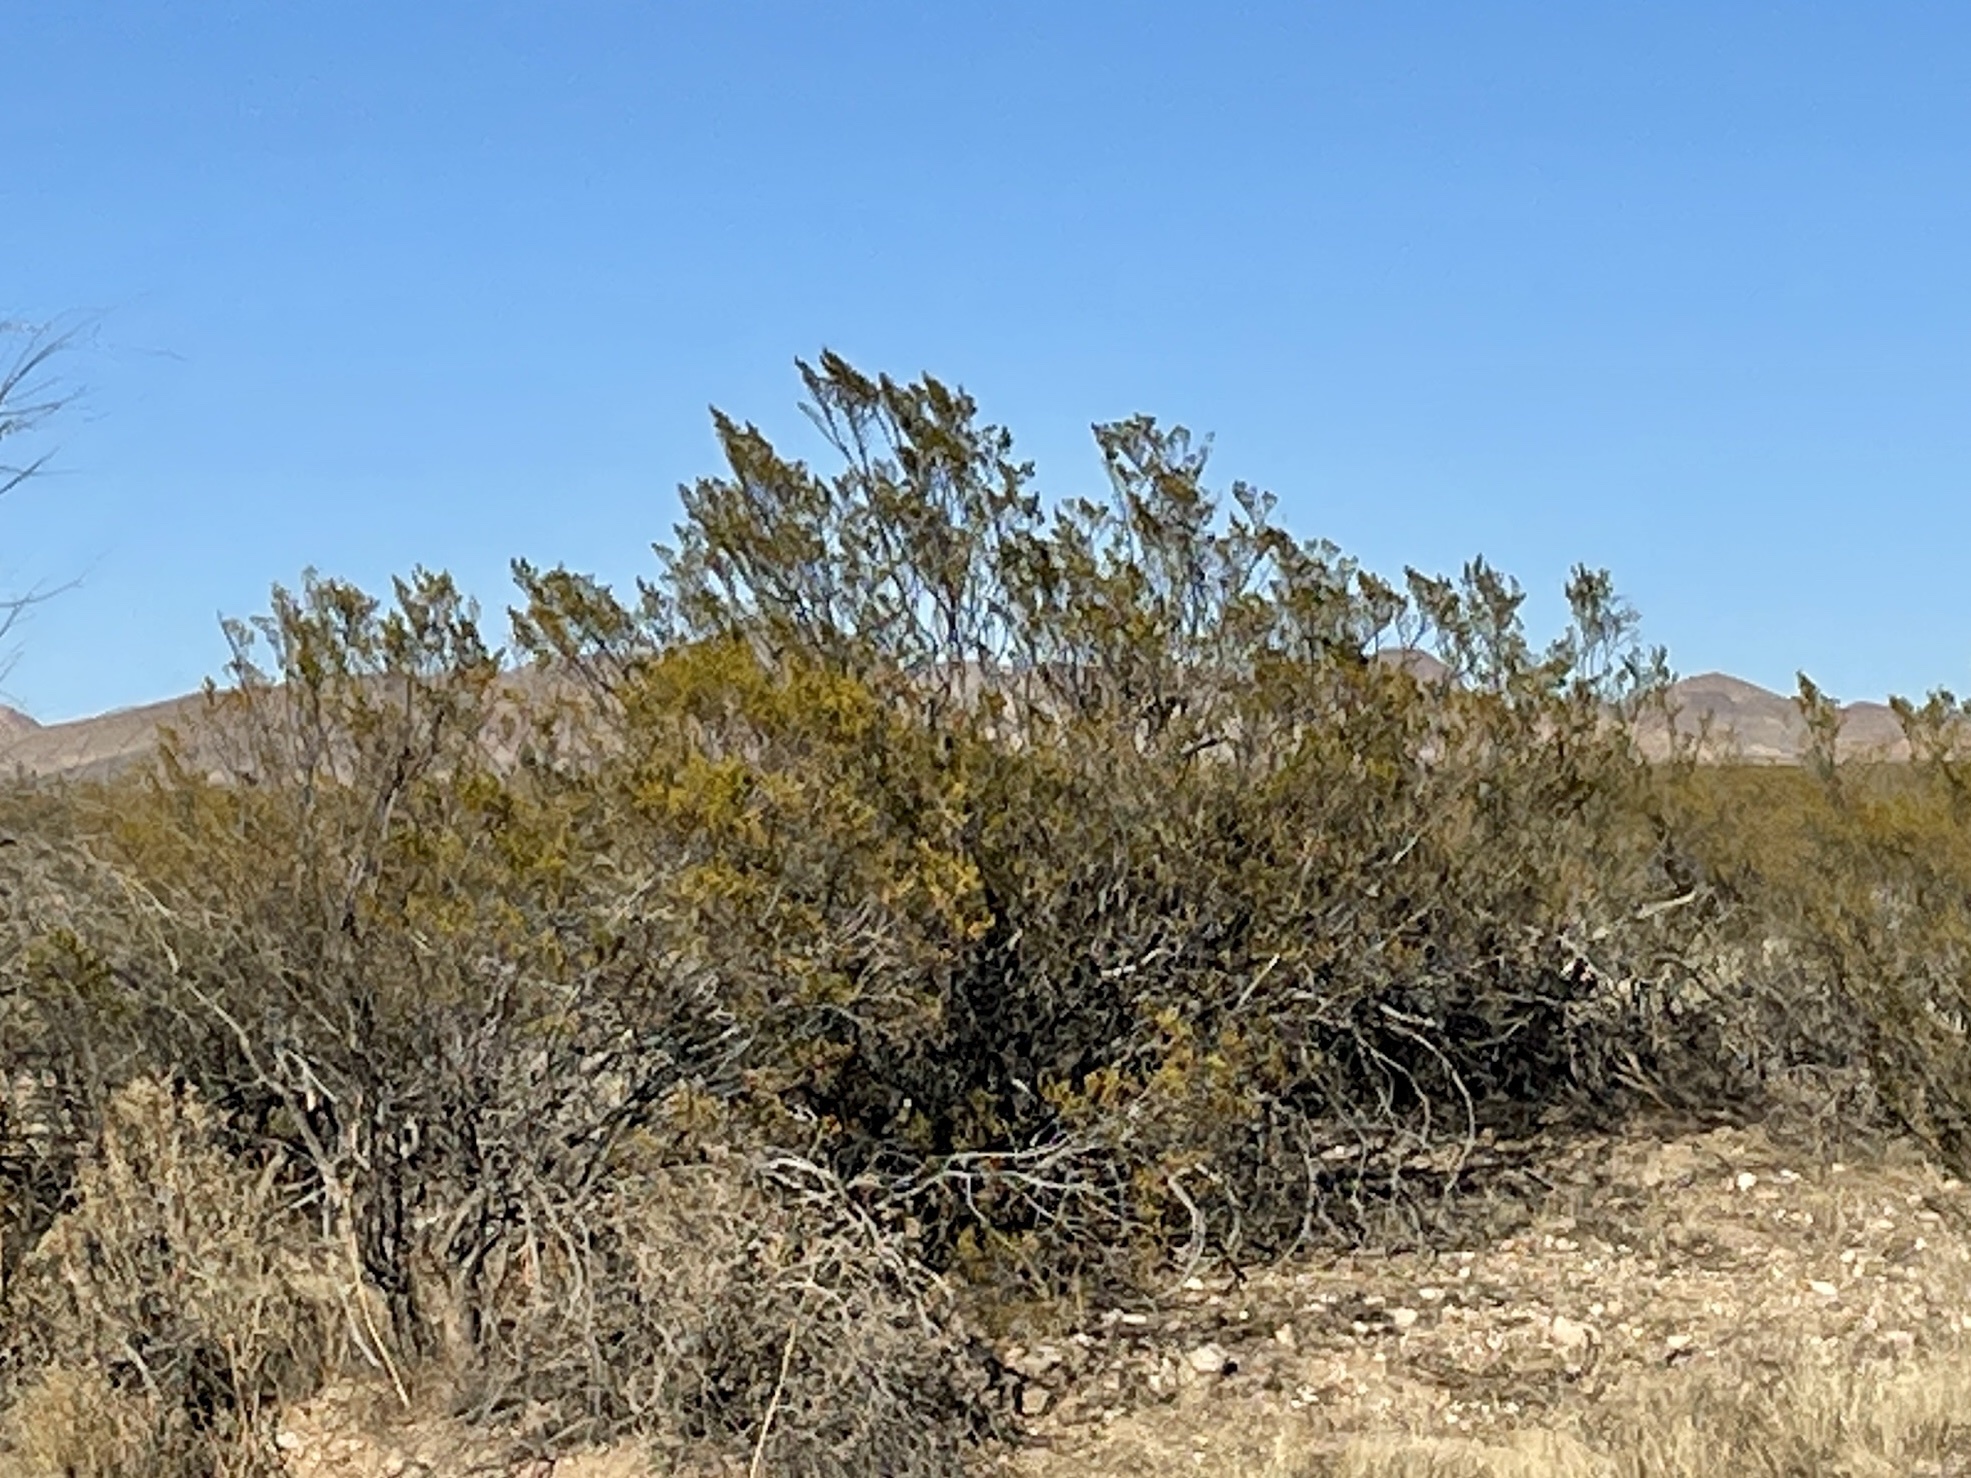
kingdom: Plantae
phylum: Tracheophyta
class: Magnoliopsida
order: Zygophyllales
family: Zygophyllaceae
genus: Larrea
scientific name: Larrea tridentata
